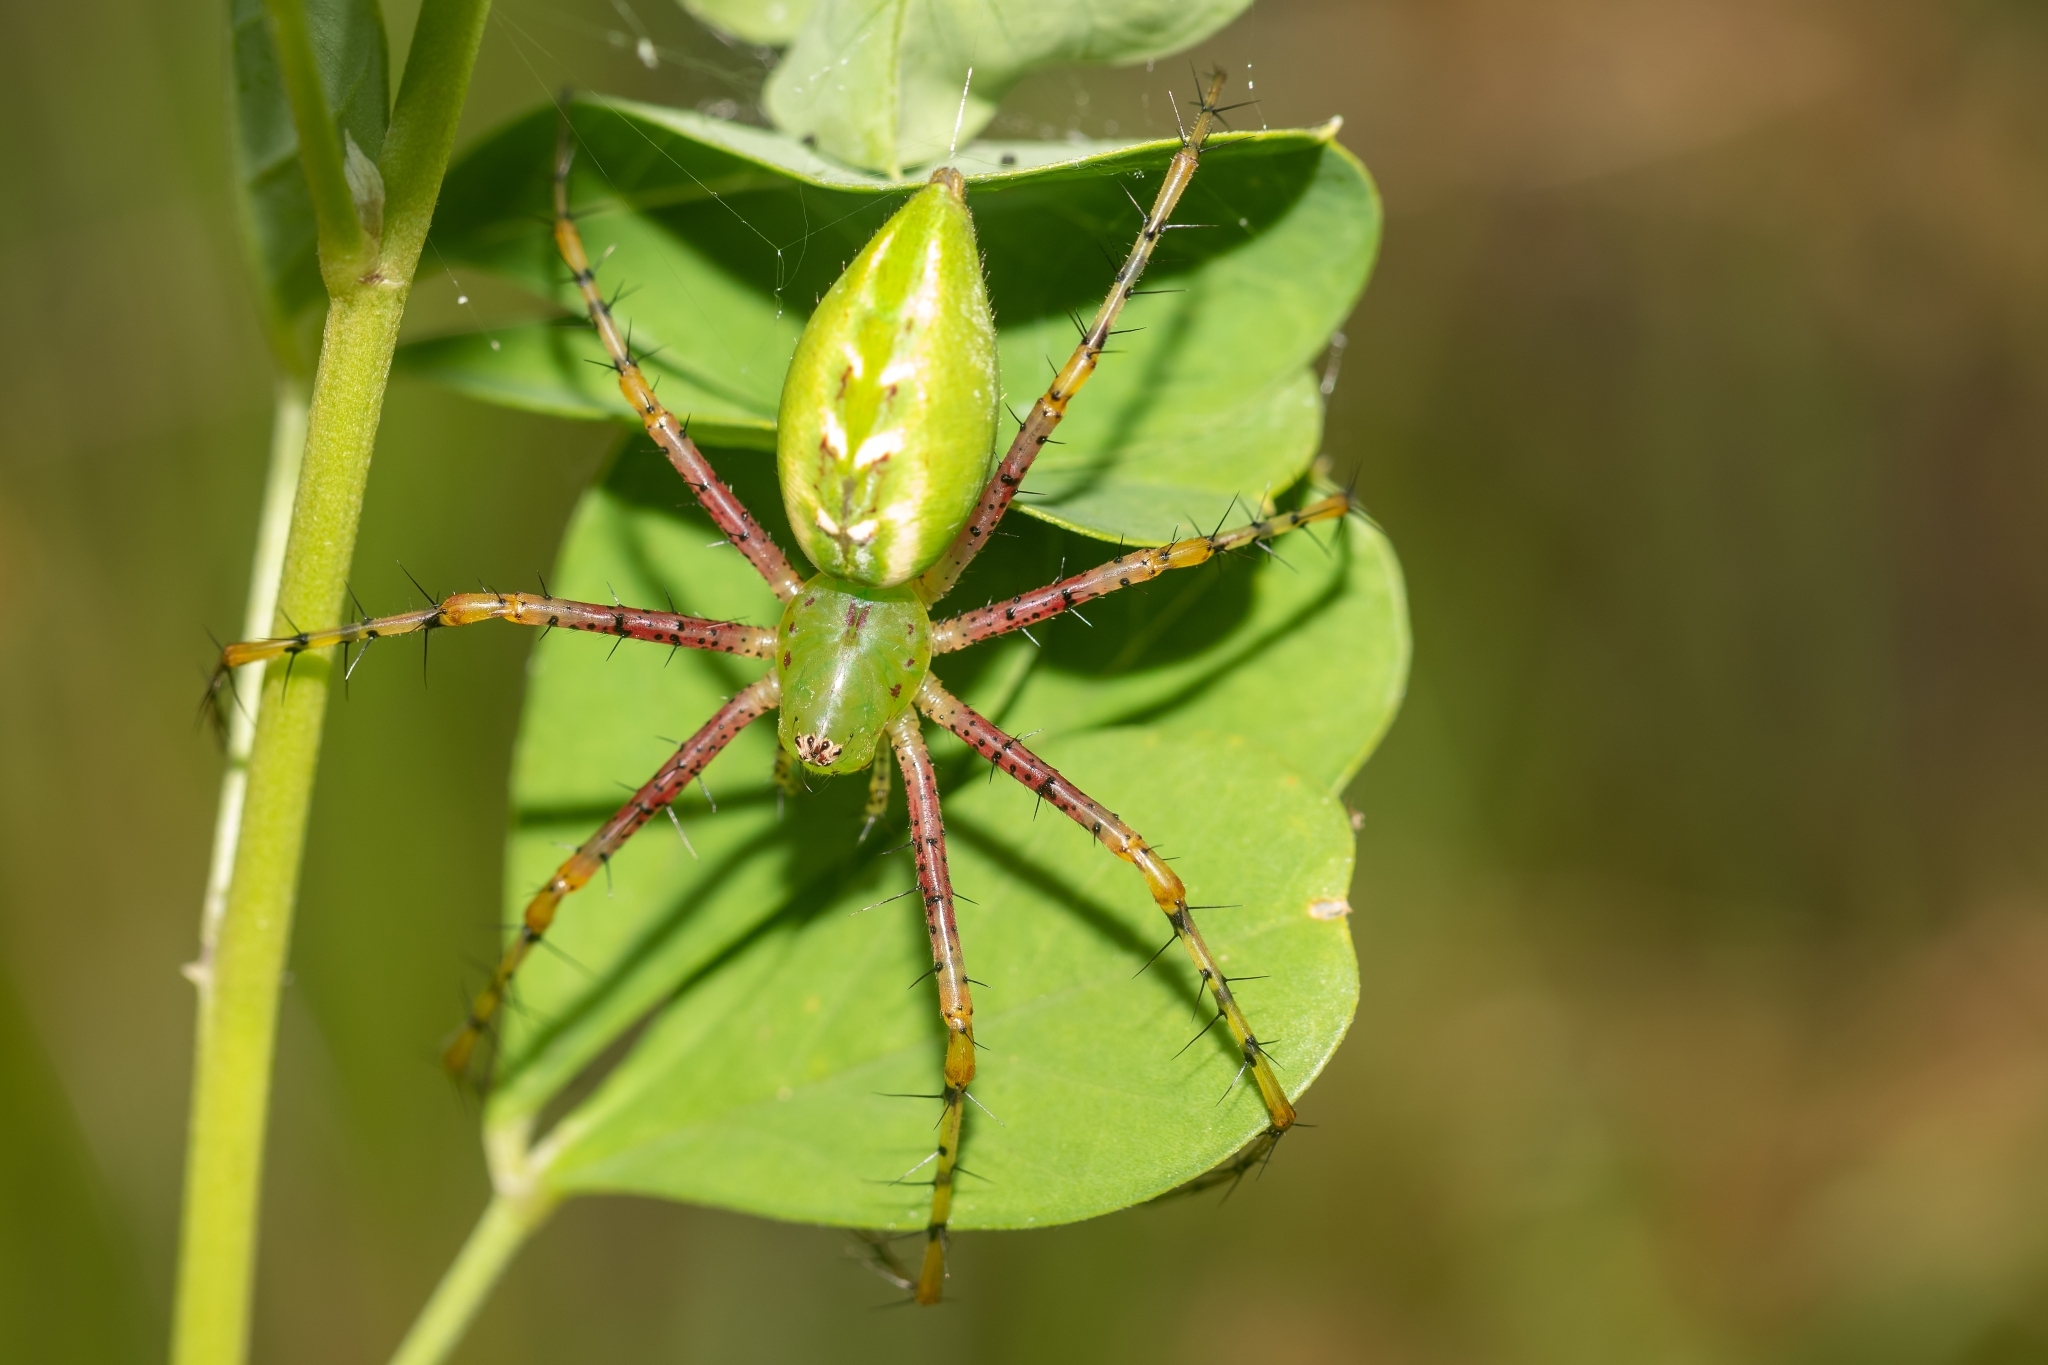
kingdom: Animalia
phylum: Arthropoda
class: Arachnida
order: Araneae
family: Oxyopidae
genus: Peucetia
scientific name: Peucetia viridans
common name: Lynx spiders
